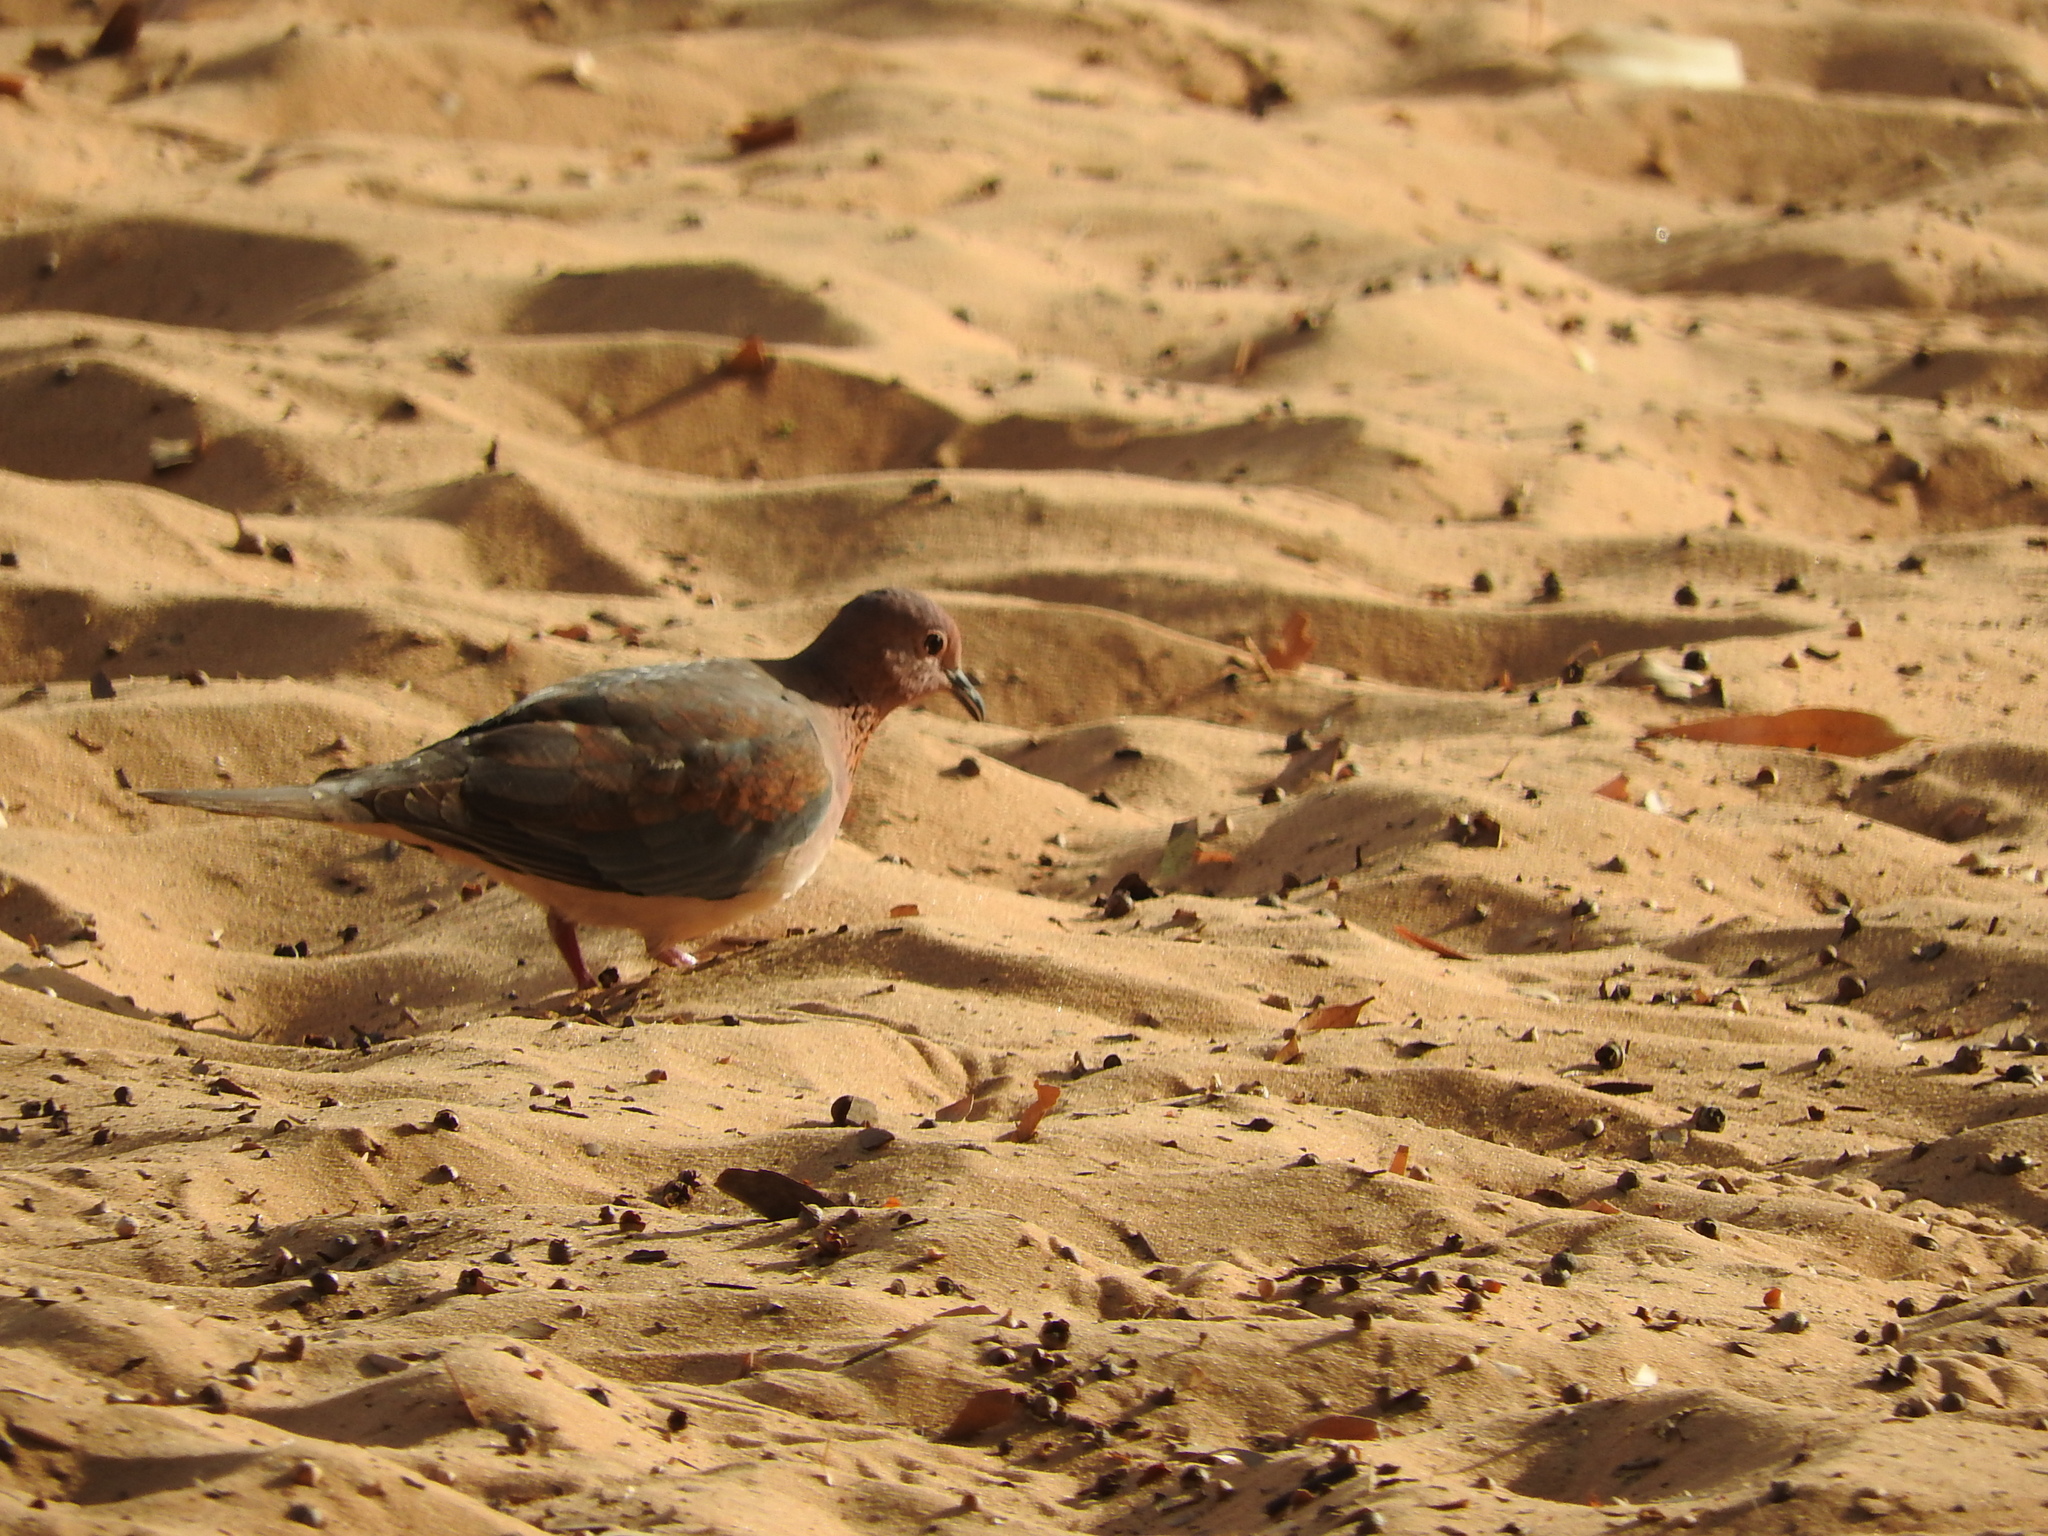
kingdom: Animalia
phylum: Chordata
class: Aves
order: Columbiformes
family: Columbidae
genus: Spilopelia
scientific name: Spilopelia senegalensis
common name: Laughing dove
